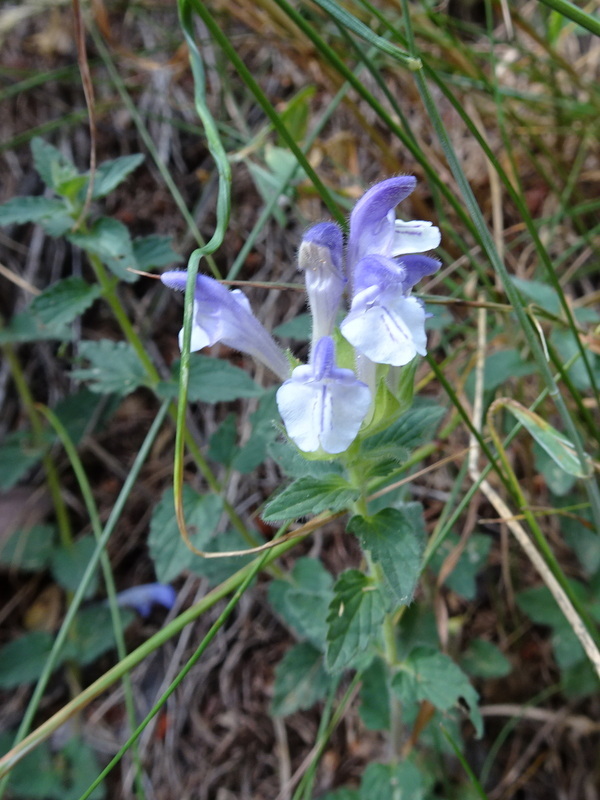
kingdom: Plantae
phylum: Tracheophyta
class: Magnoliopsida
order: Lamiales
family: Lamiaceae
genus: Scutellaria
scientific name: Scutellaria alpina
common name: Alpine scullcap
